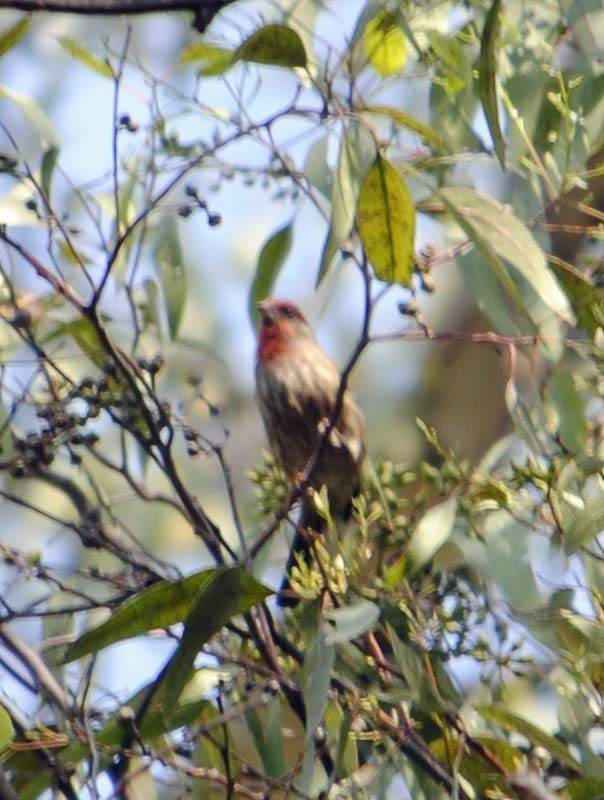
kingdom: Animalia
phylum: Chordata
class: Aves
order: Passeriformes
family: Fringillidae
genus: Haemorhous
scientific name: Haemorhous mexicanus
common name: House finch
